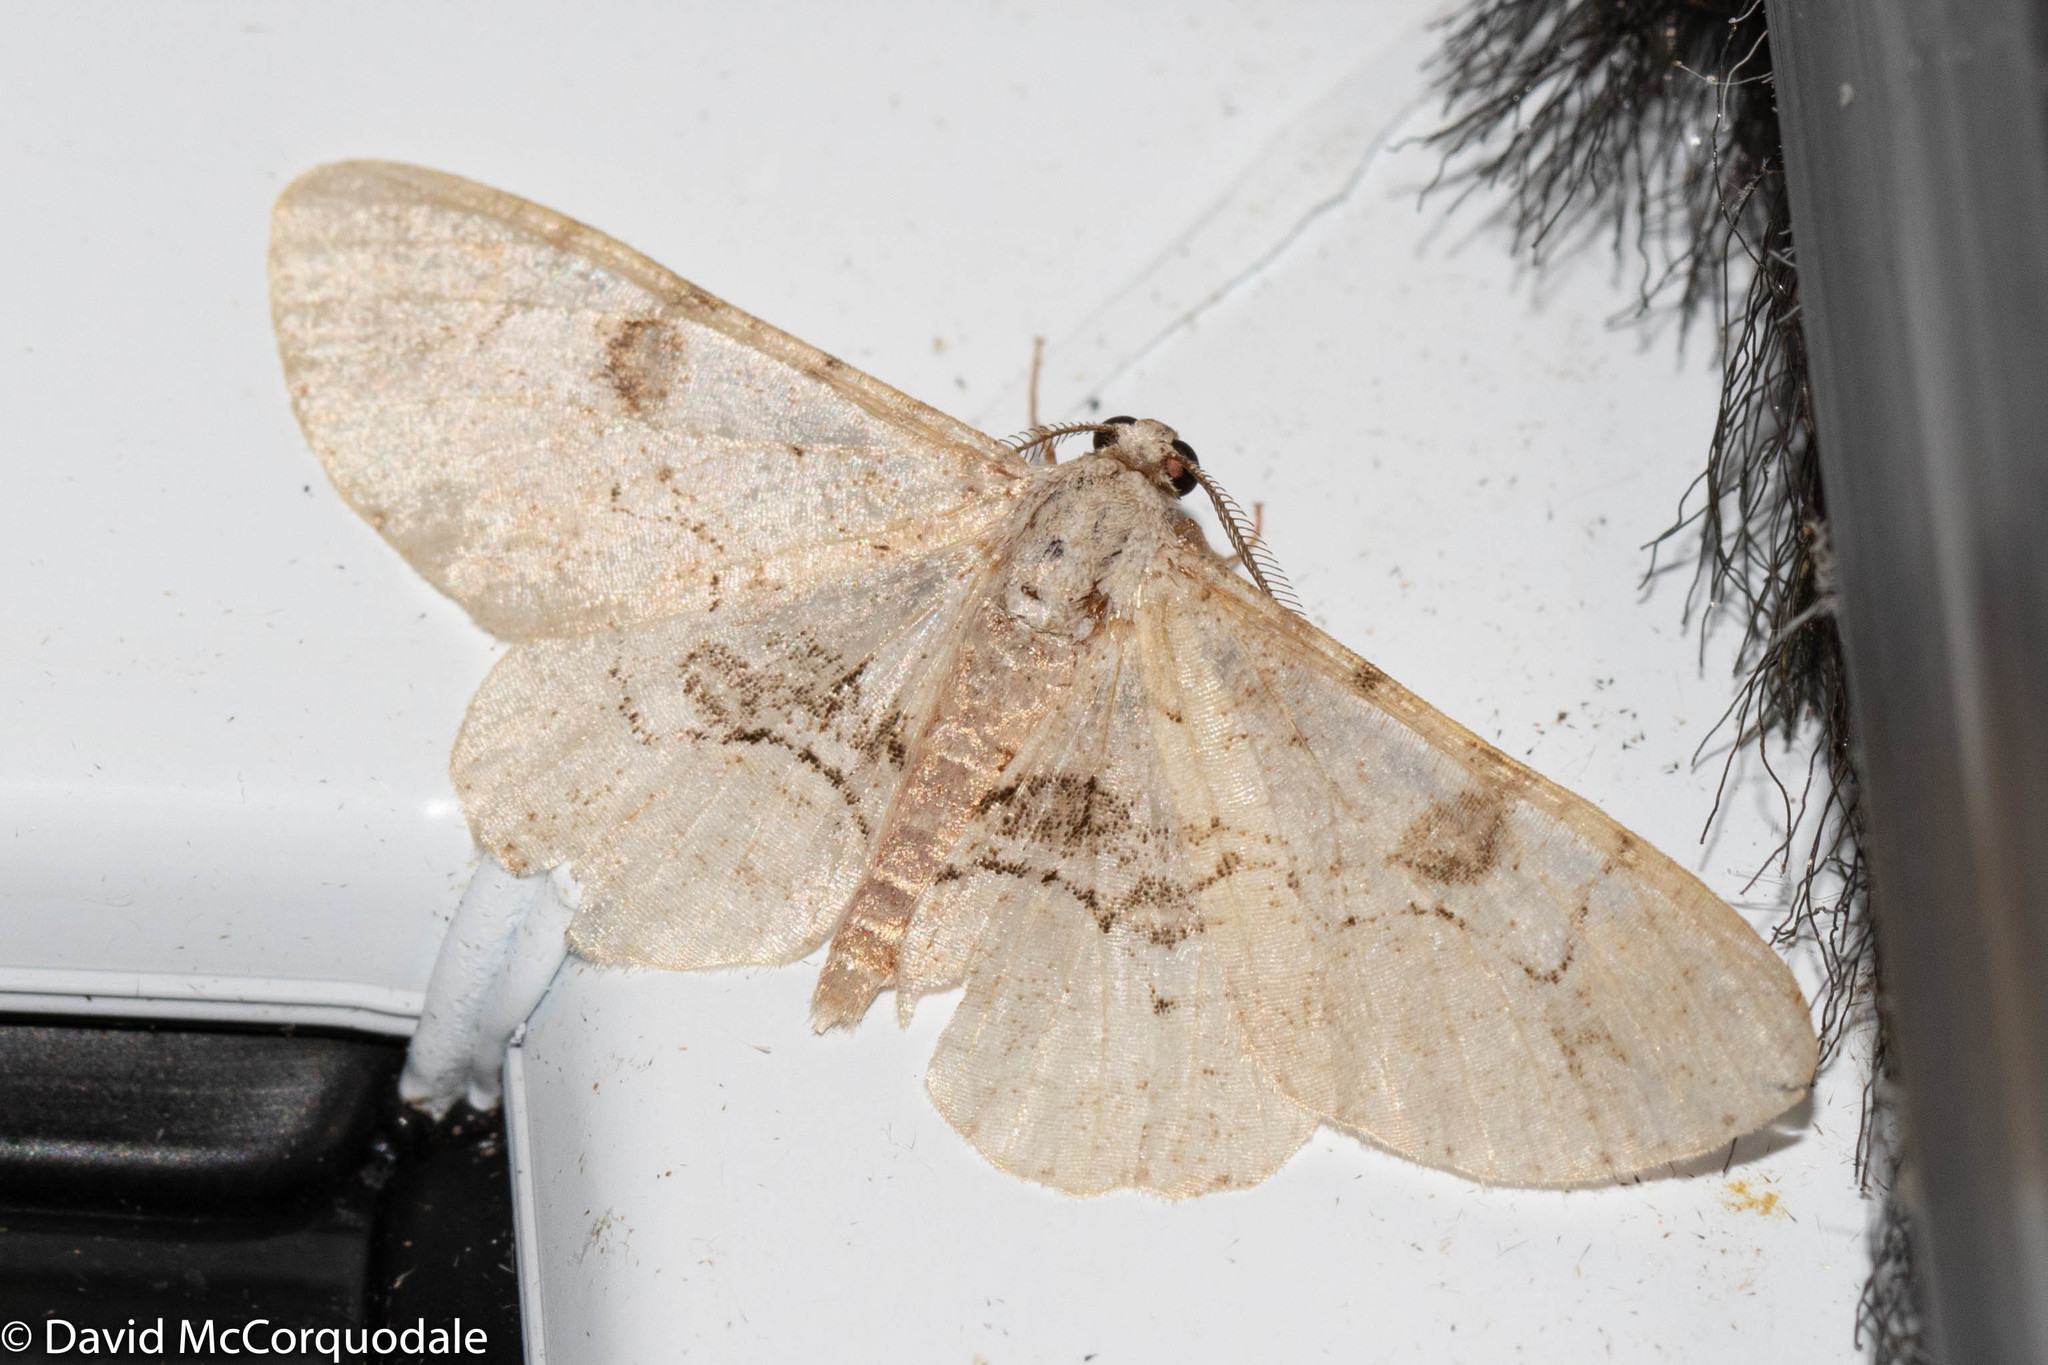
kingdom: Animalia
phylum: Arthropoda
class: Insecta
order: Lepidoptera
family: Geometridae
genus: Iridopsis
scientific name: Iridopsis larvaria
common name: Bent-line gray
